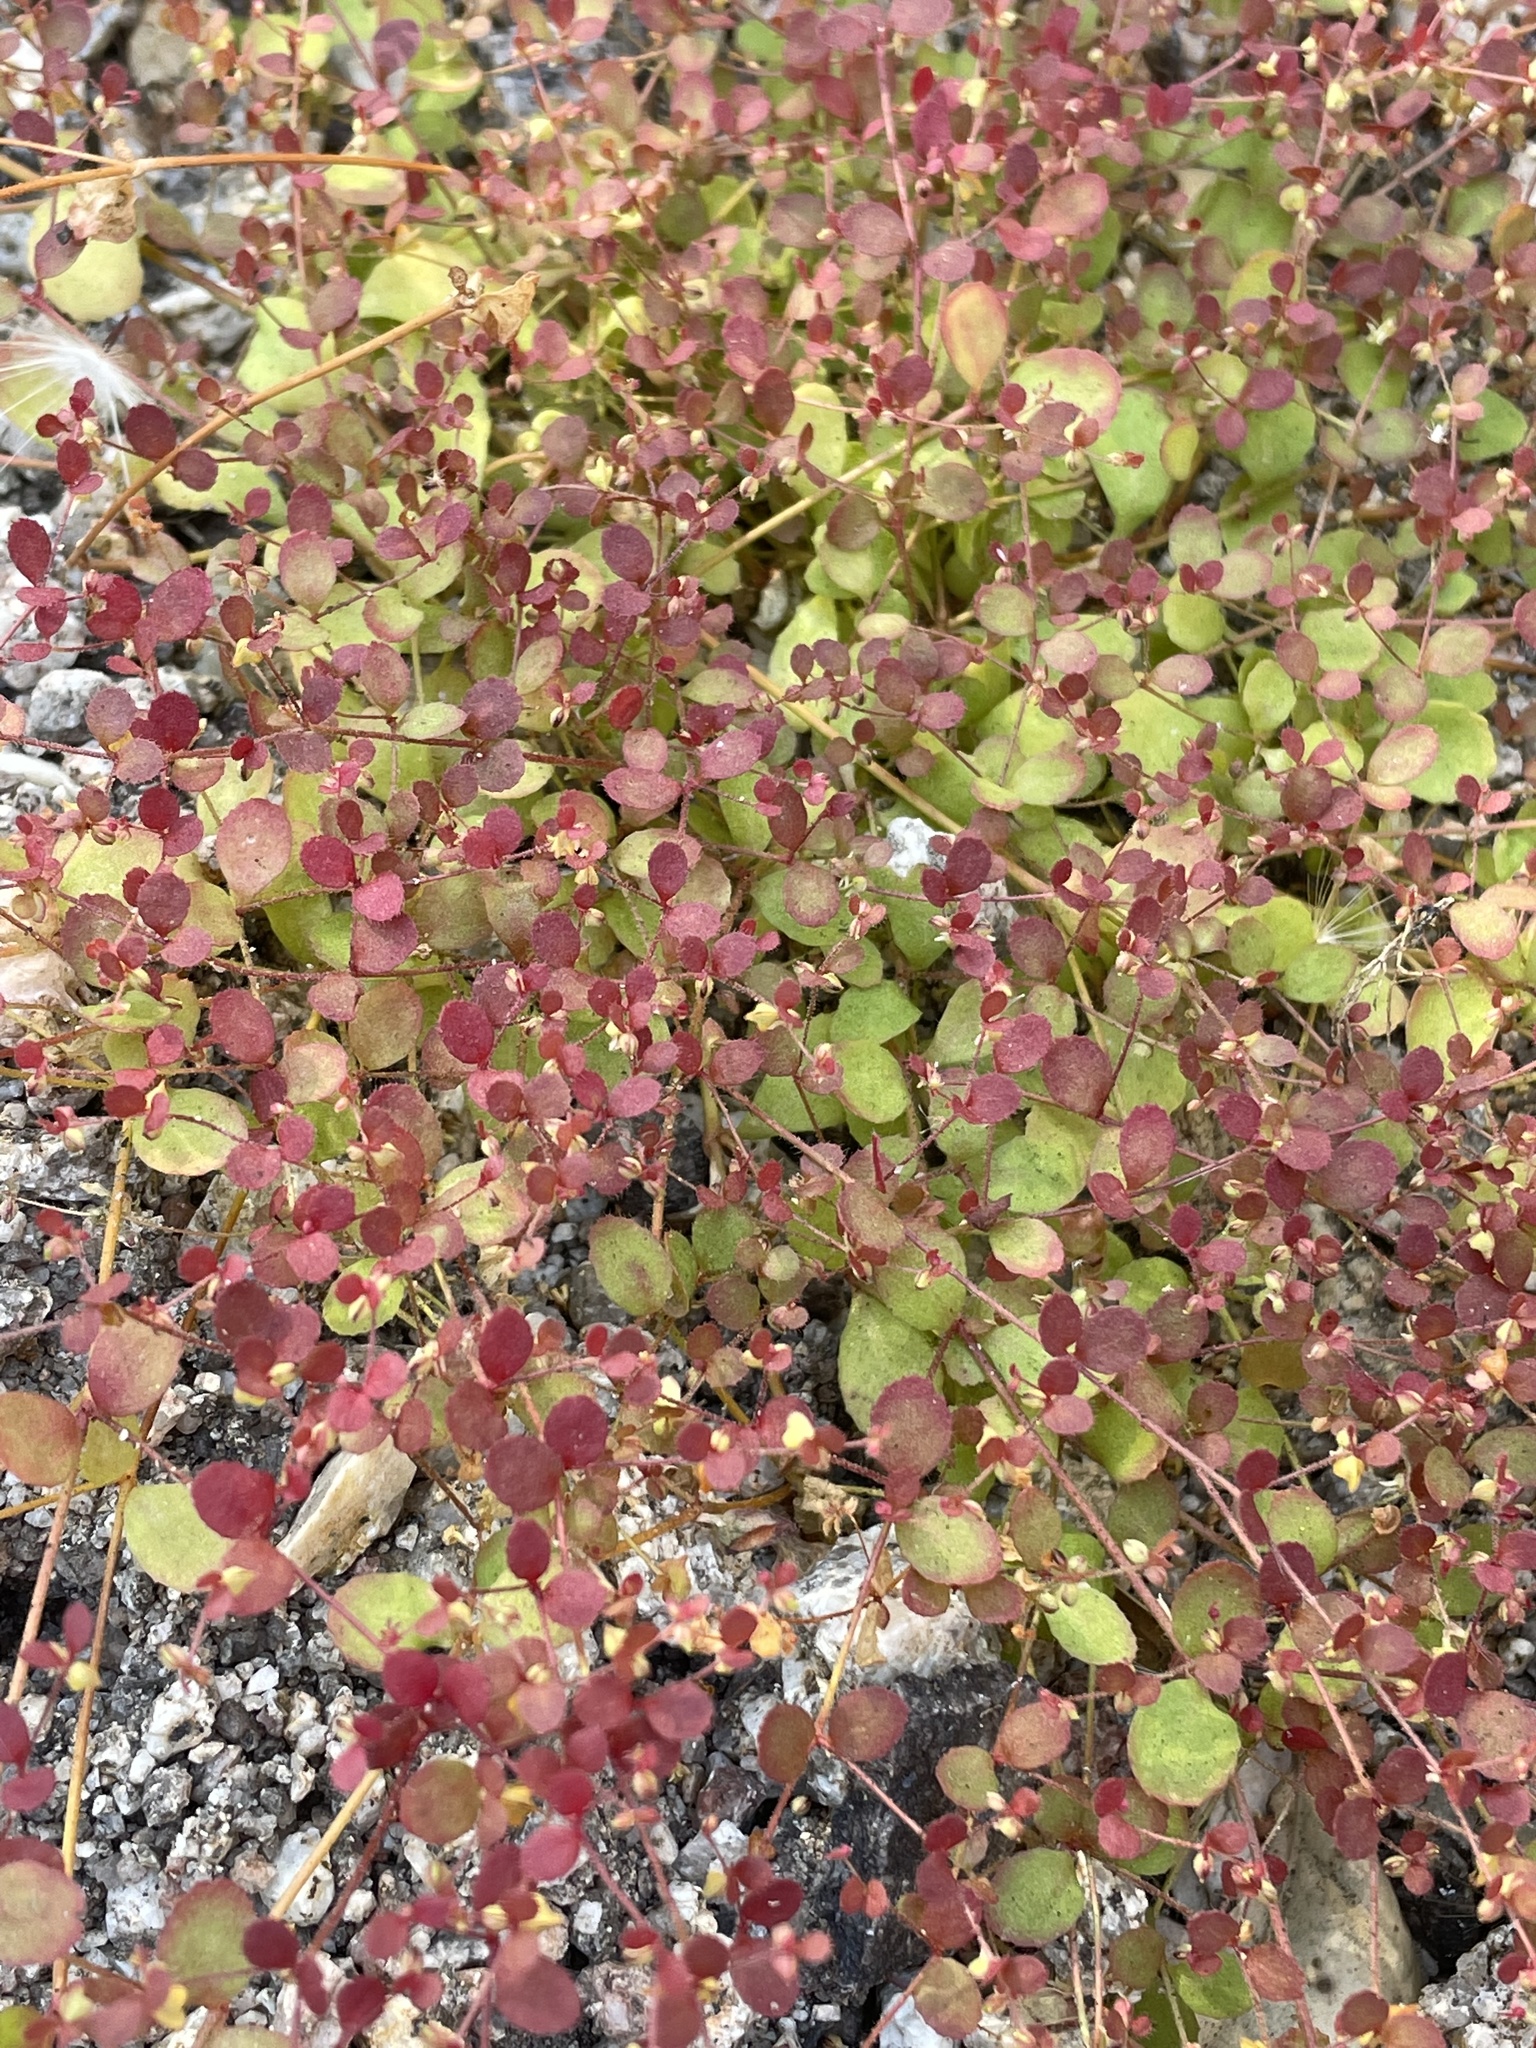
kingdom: Plantae
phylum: Tracheophyta
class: Magnoliopsida
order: Caryophyllales
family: Polygonaceae
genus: Pterostegia
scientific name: Pterostegia drymarioides
